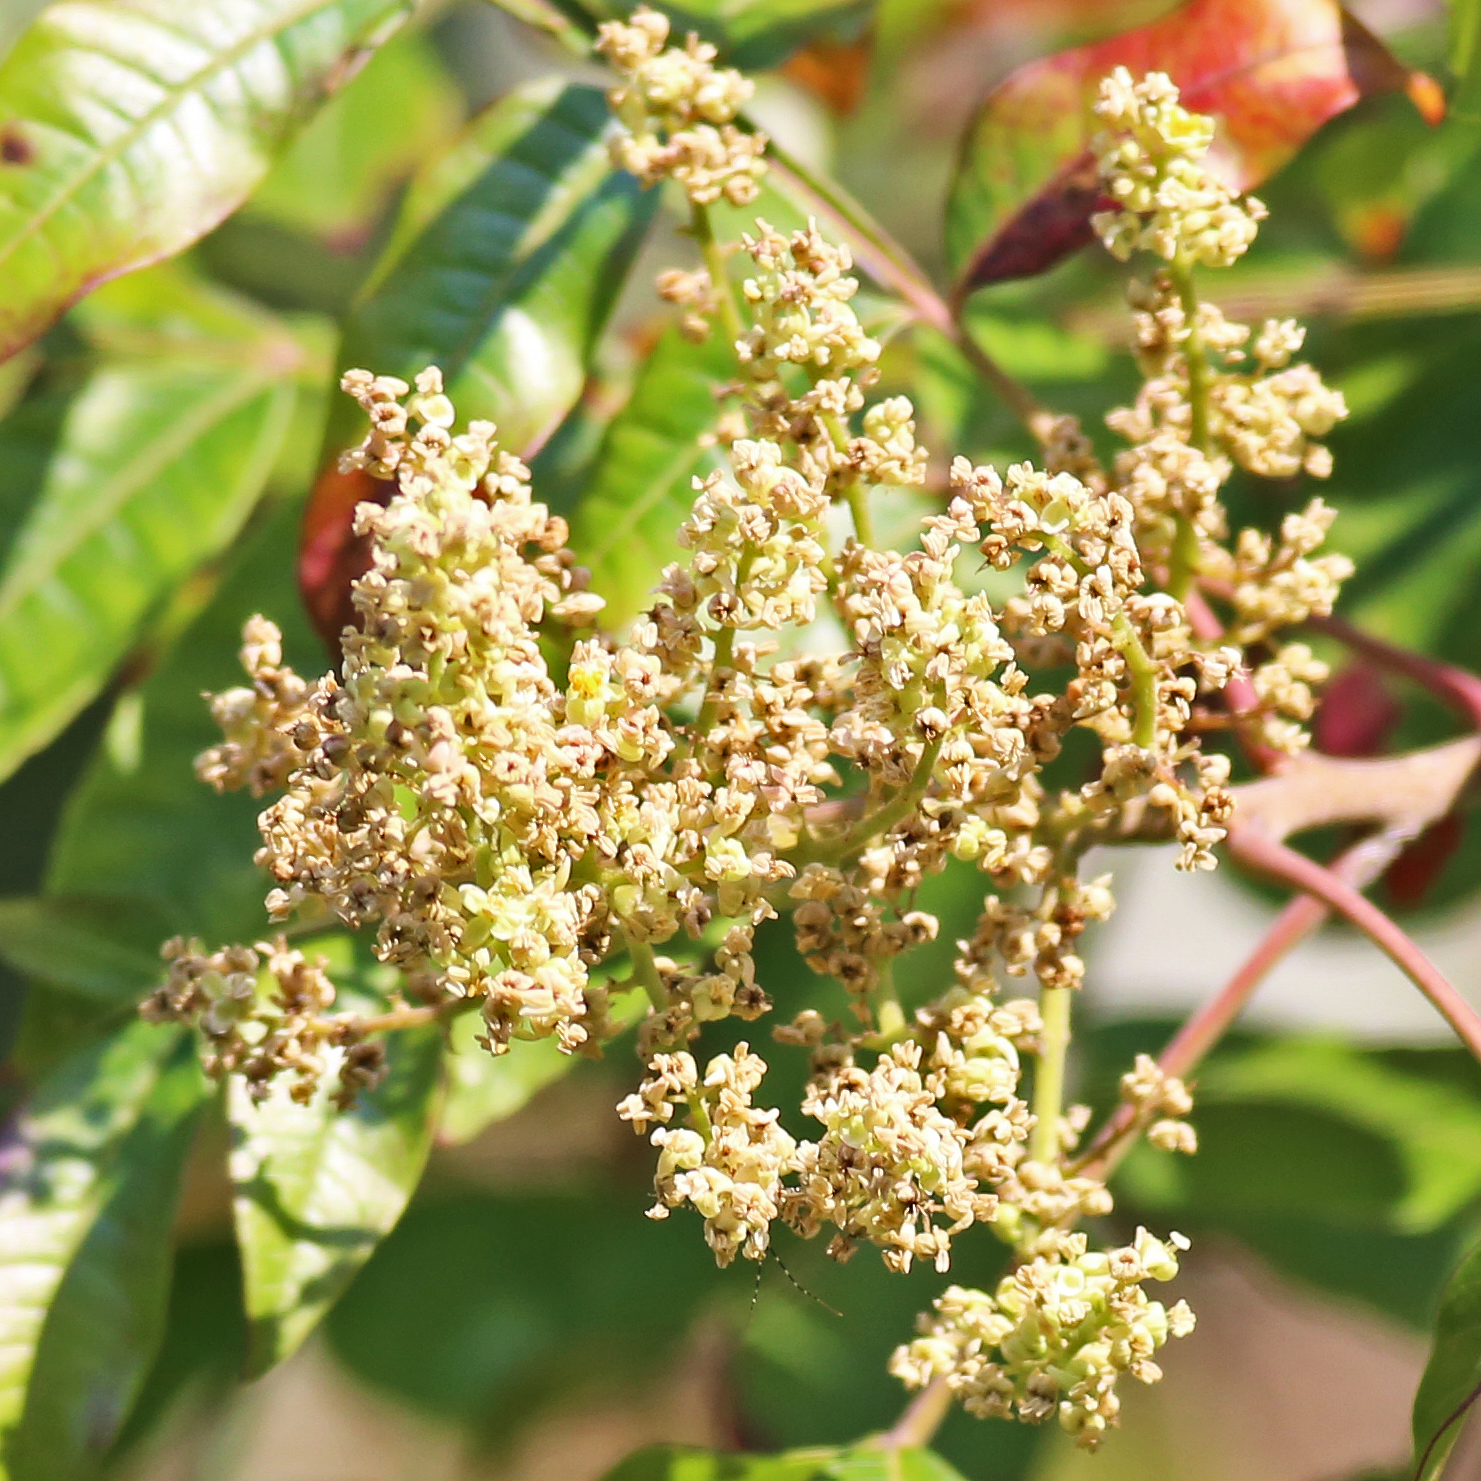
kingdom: Plantae
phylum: Tracheophyta
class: Magnoliopsida
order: Sapindales
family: Anacardiaceae
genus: Rhus
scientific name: Rhus copallina
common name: Shining sumac
